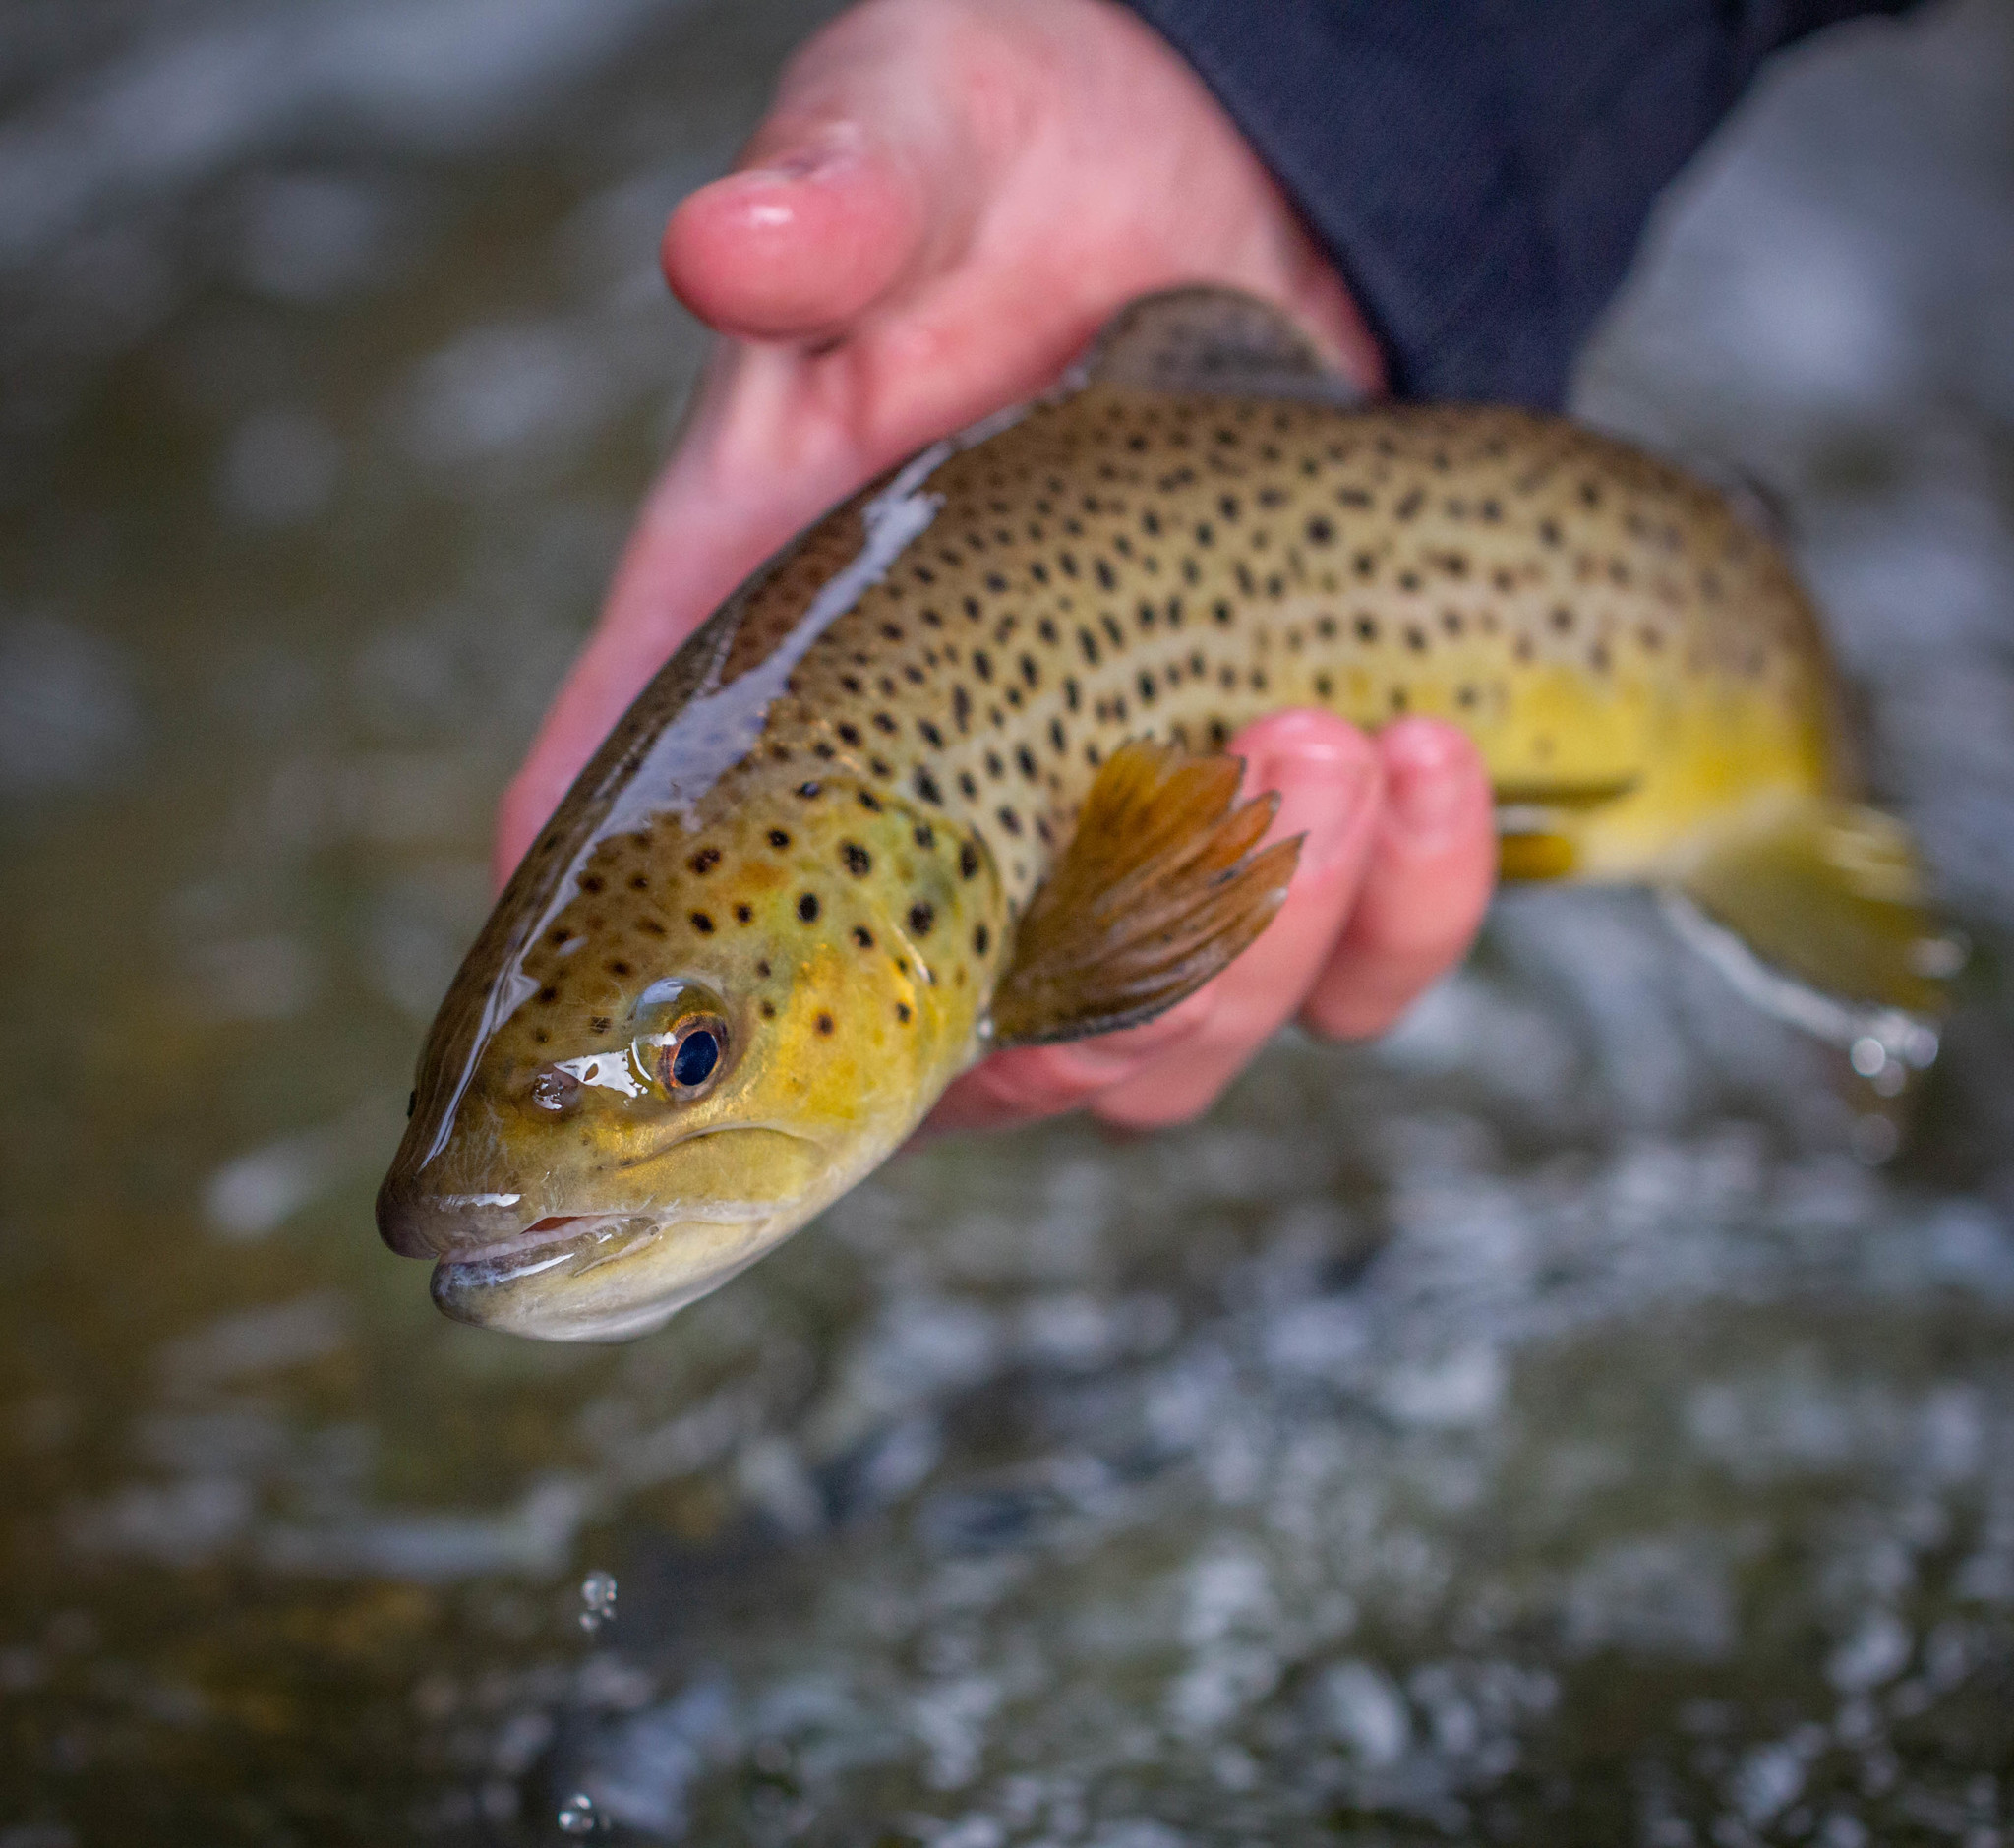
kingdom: Animalia
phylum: Chordata
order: Salmoniformes
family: Salmonidae
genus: Salmo
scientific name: Salmo trutta
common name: Brown trout
